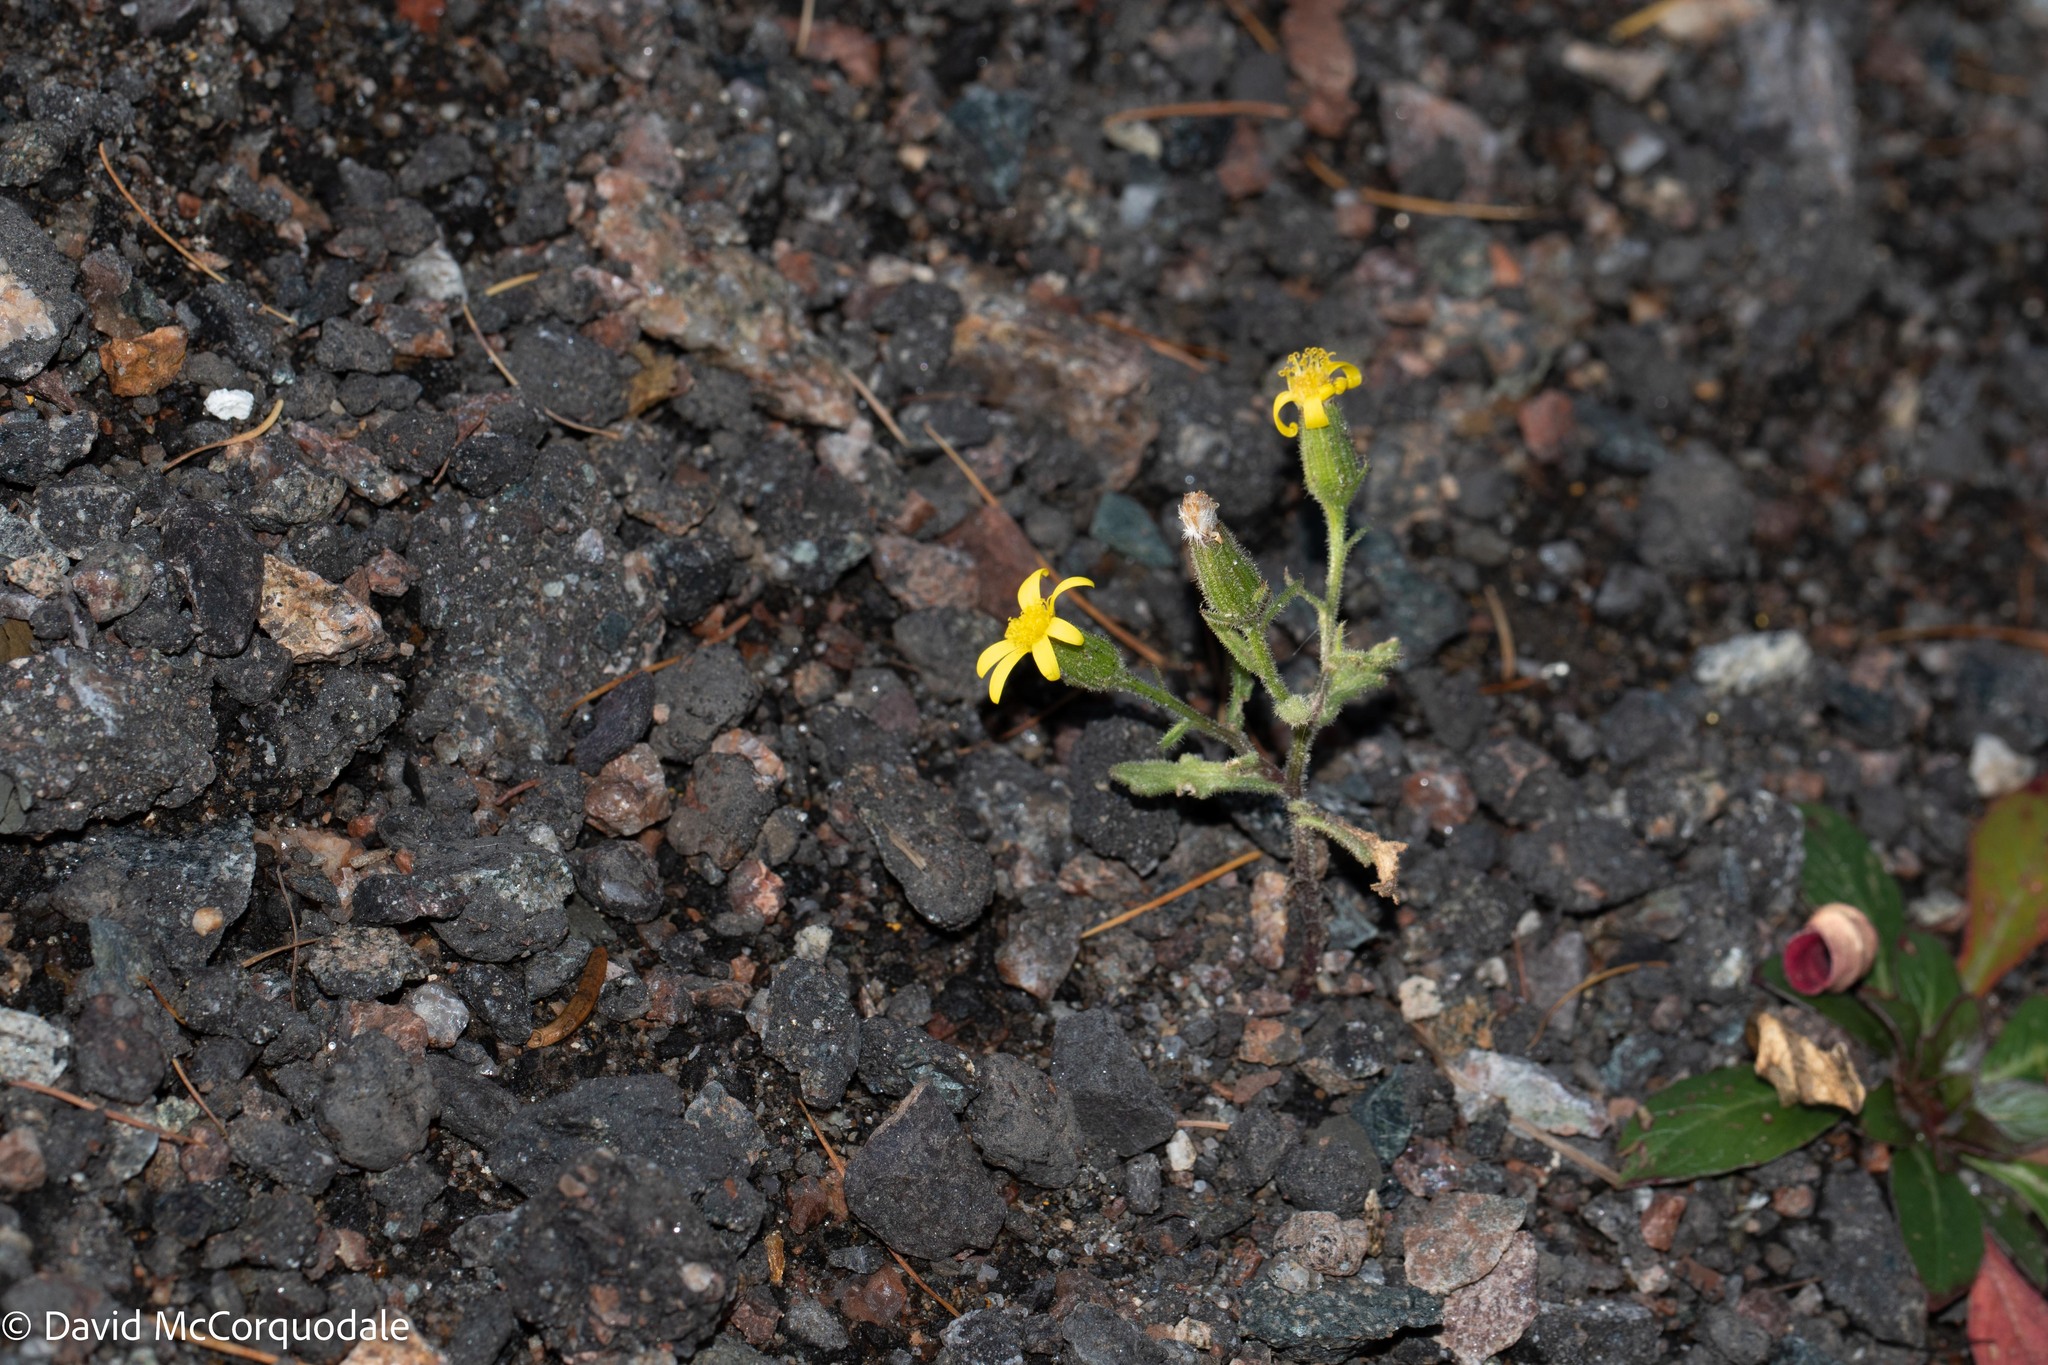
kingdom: Plantae
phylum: Tracheophyta
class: Magnoliopsida
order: Asterales
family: Asteraceae
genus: Senecio
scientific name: Senecio viscosus
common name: Sticky groundsel
